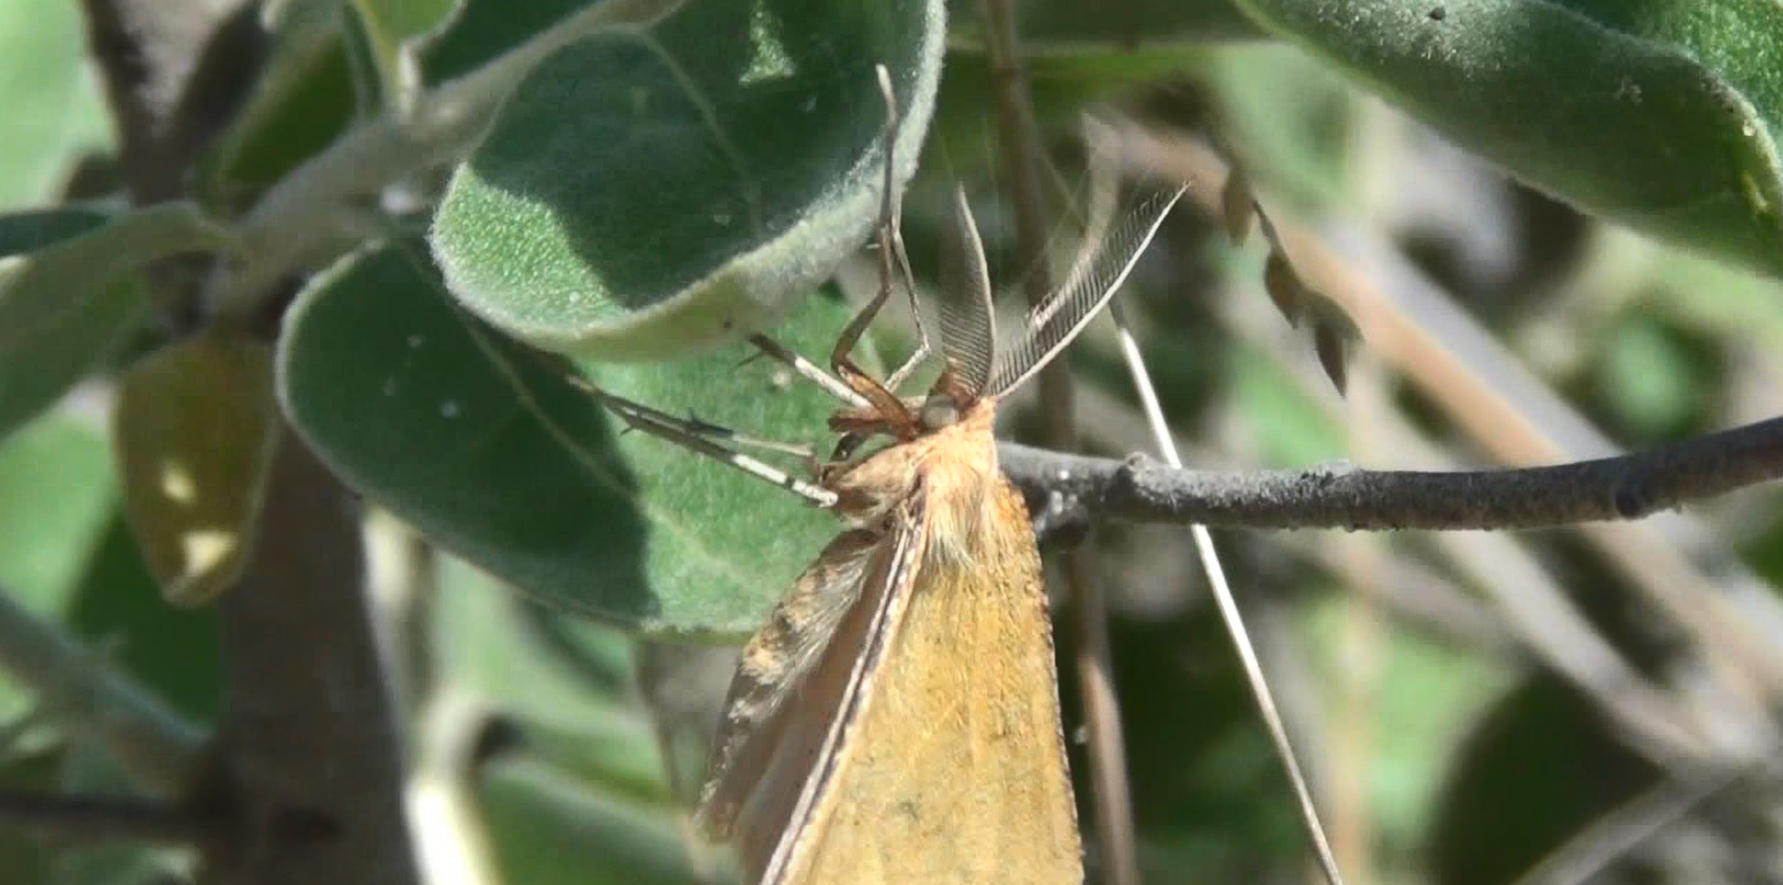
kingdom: Animalia
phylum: Arthropoda
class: Insecta
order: Lepidoptera
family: Geometridae
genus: Aspitates
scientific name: Aspitates ochrearia
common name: Yellow belle
